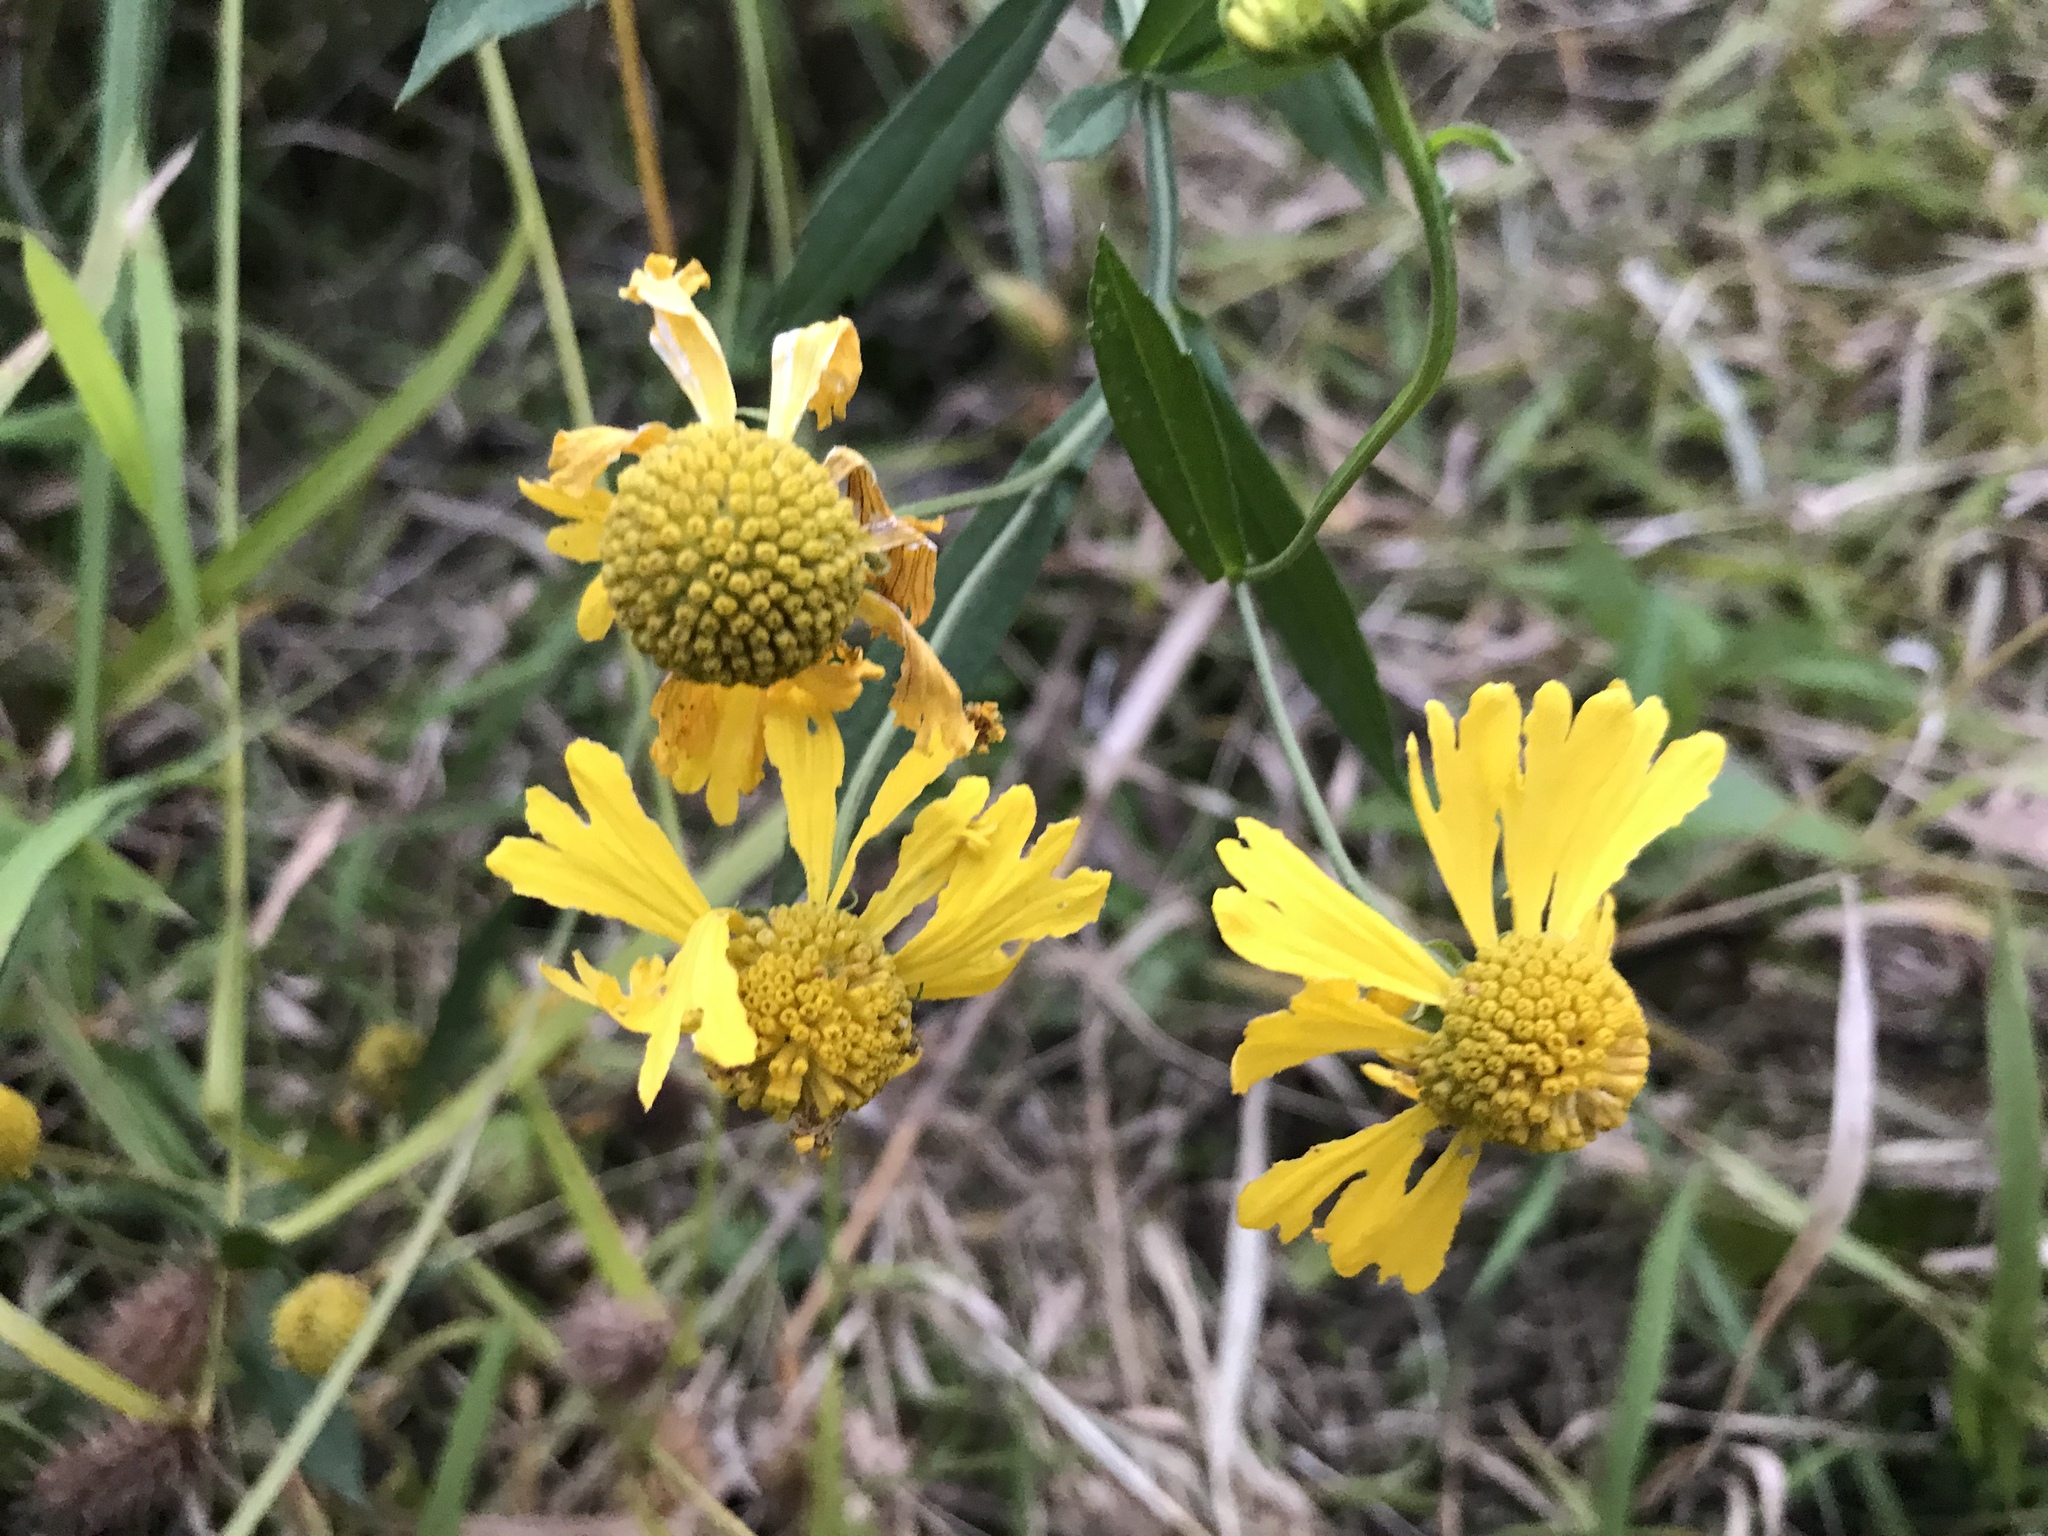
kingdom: Plantae
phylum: Tracheophyta
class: Magnoliopsida
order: Asterales
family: Asteraceae
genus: Helenium
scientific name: Helenium autumnale
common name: Sneezeweed
